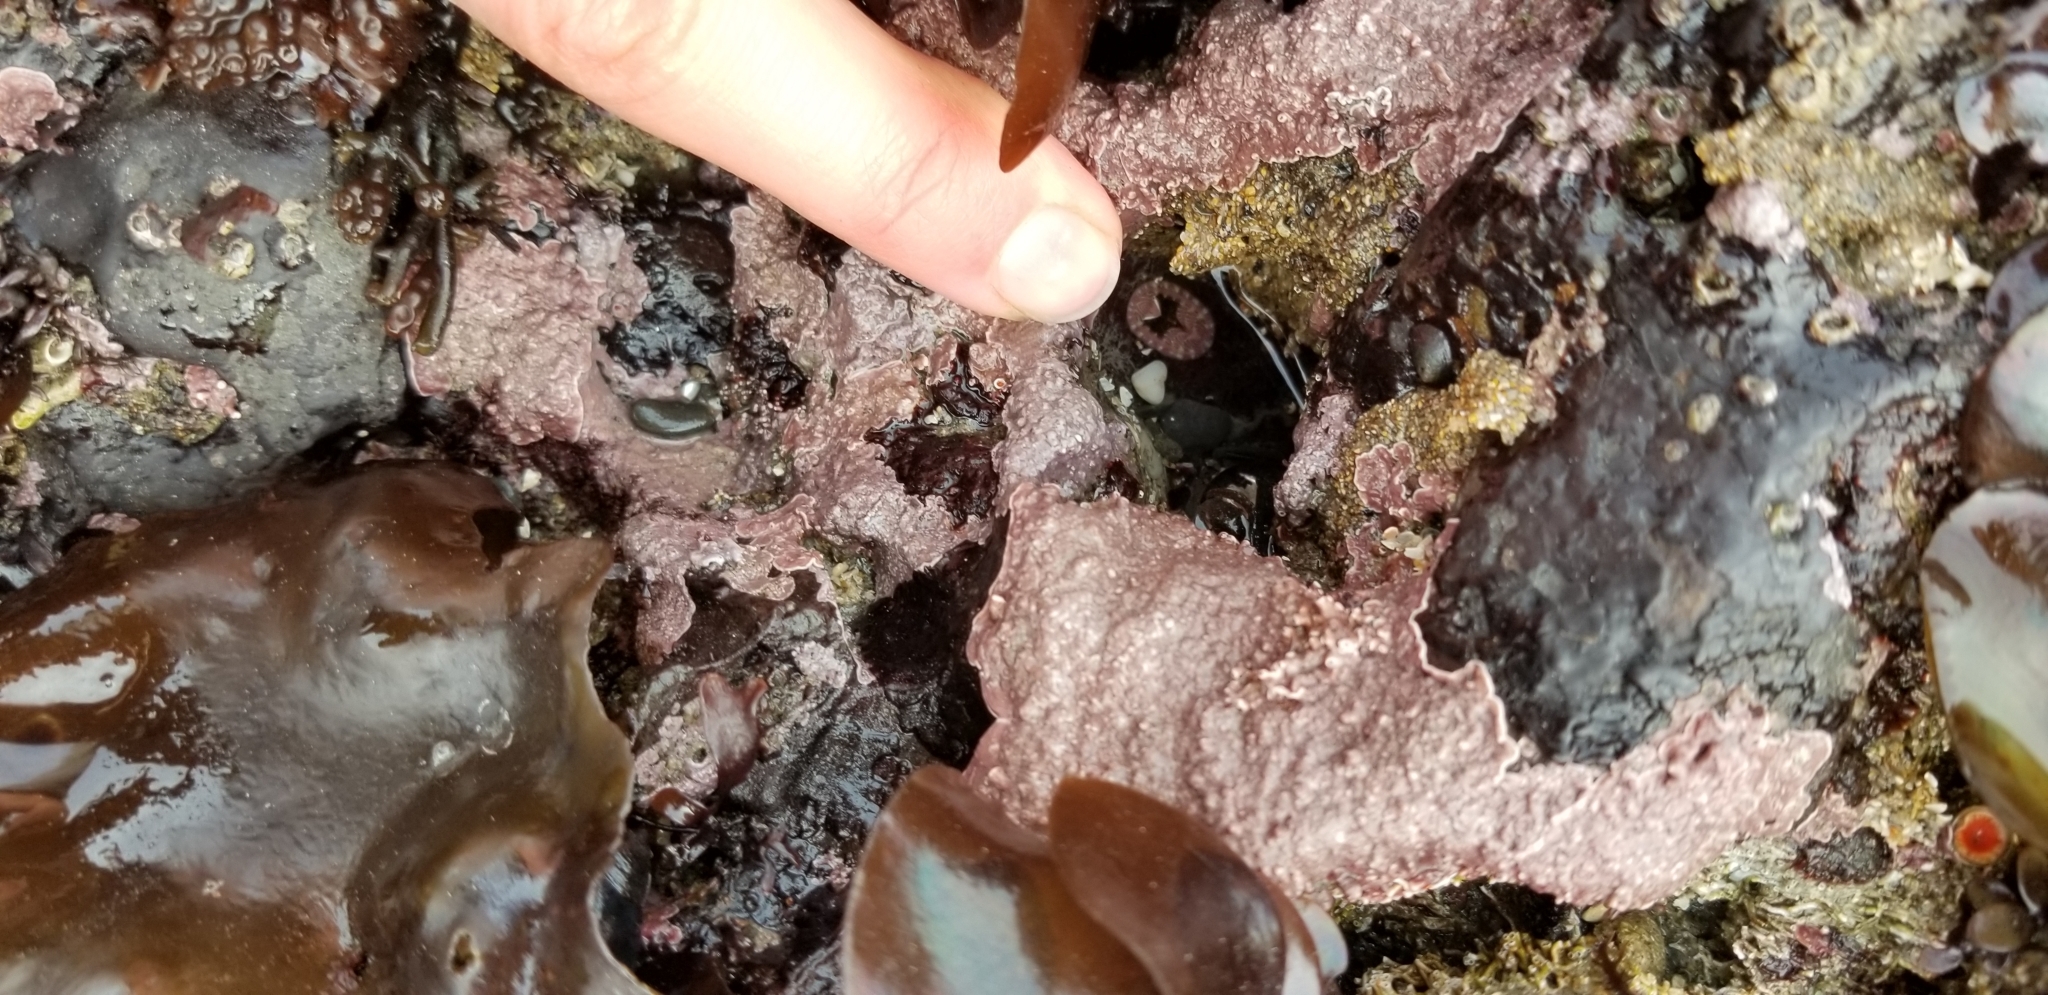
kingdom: Animalia
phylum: Mollusca
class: Polyplacophora
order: Chitonida
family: Tonicellidae
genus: Tonicella
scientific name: Tonicella lineata
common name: Lined chiton
